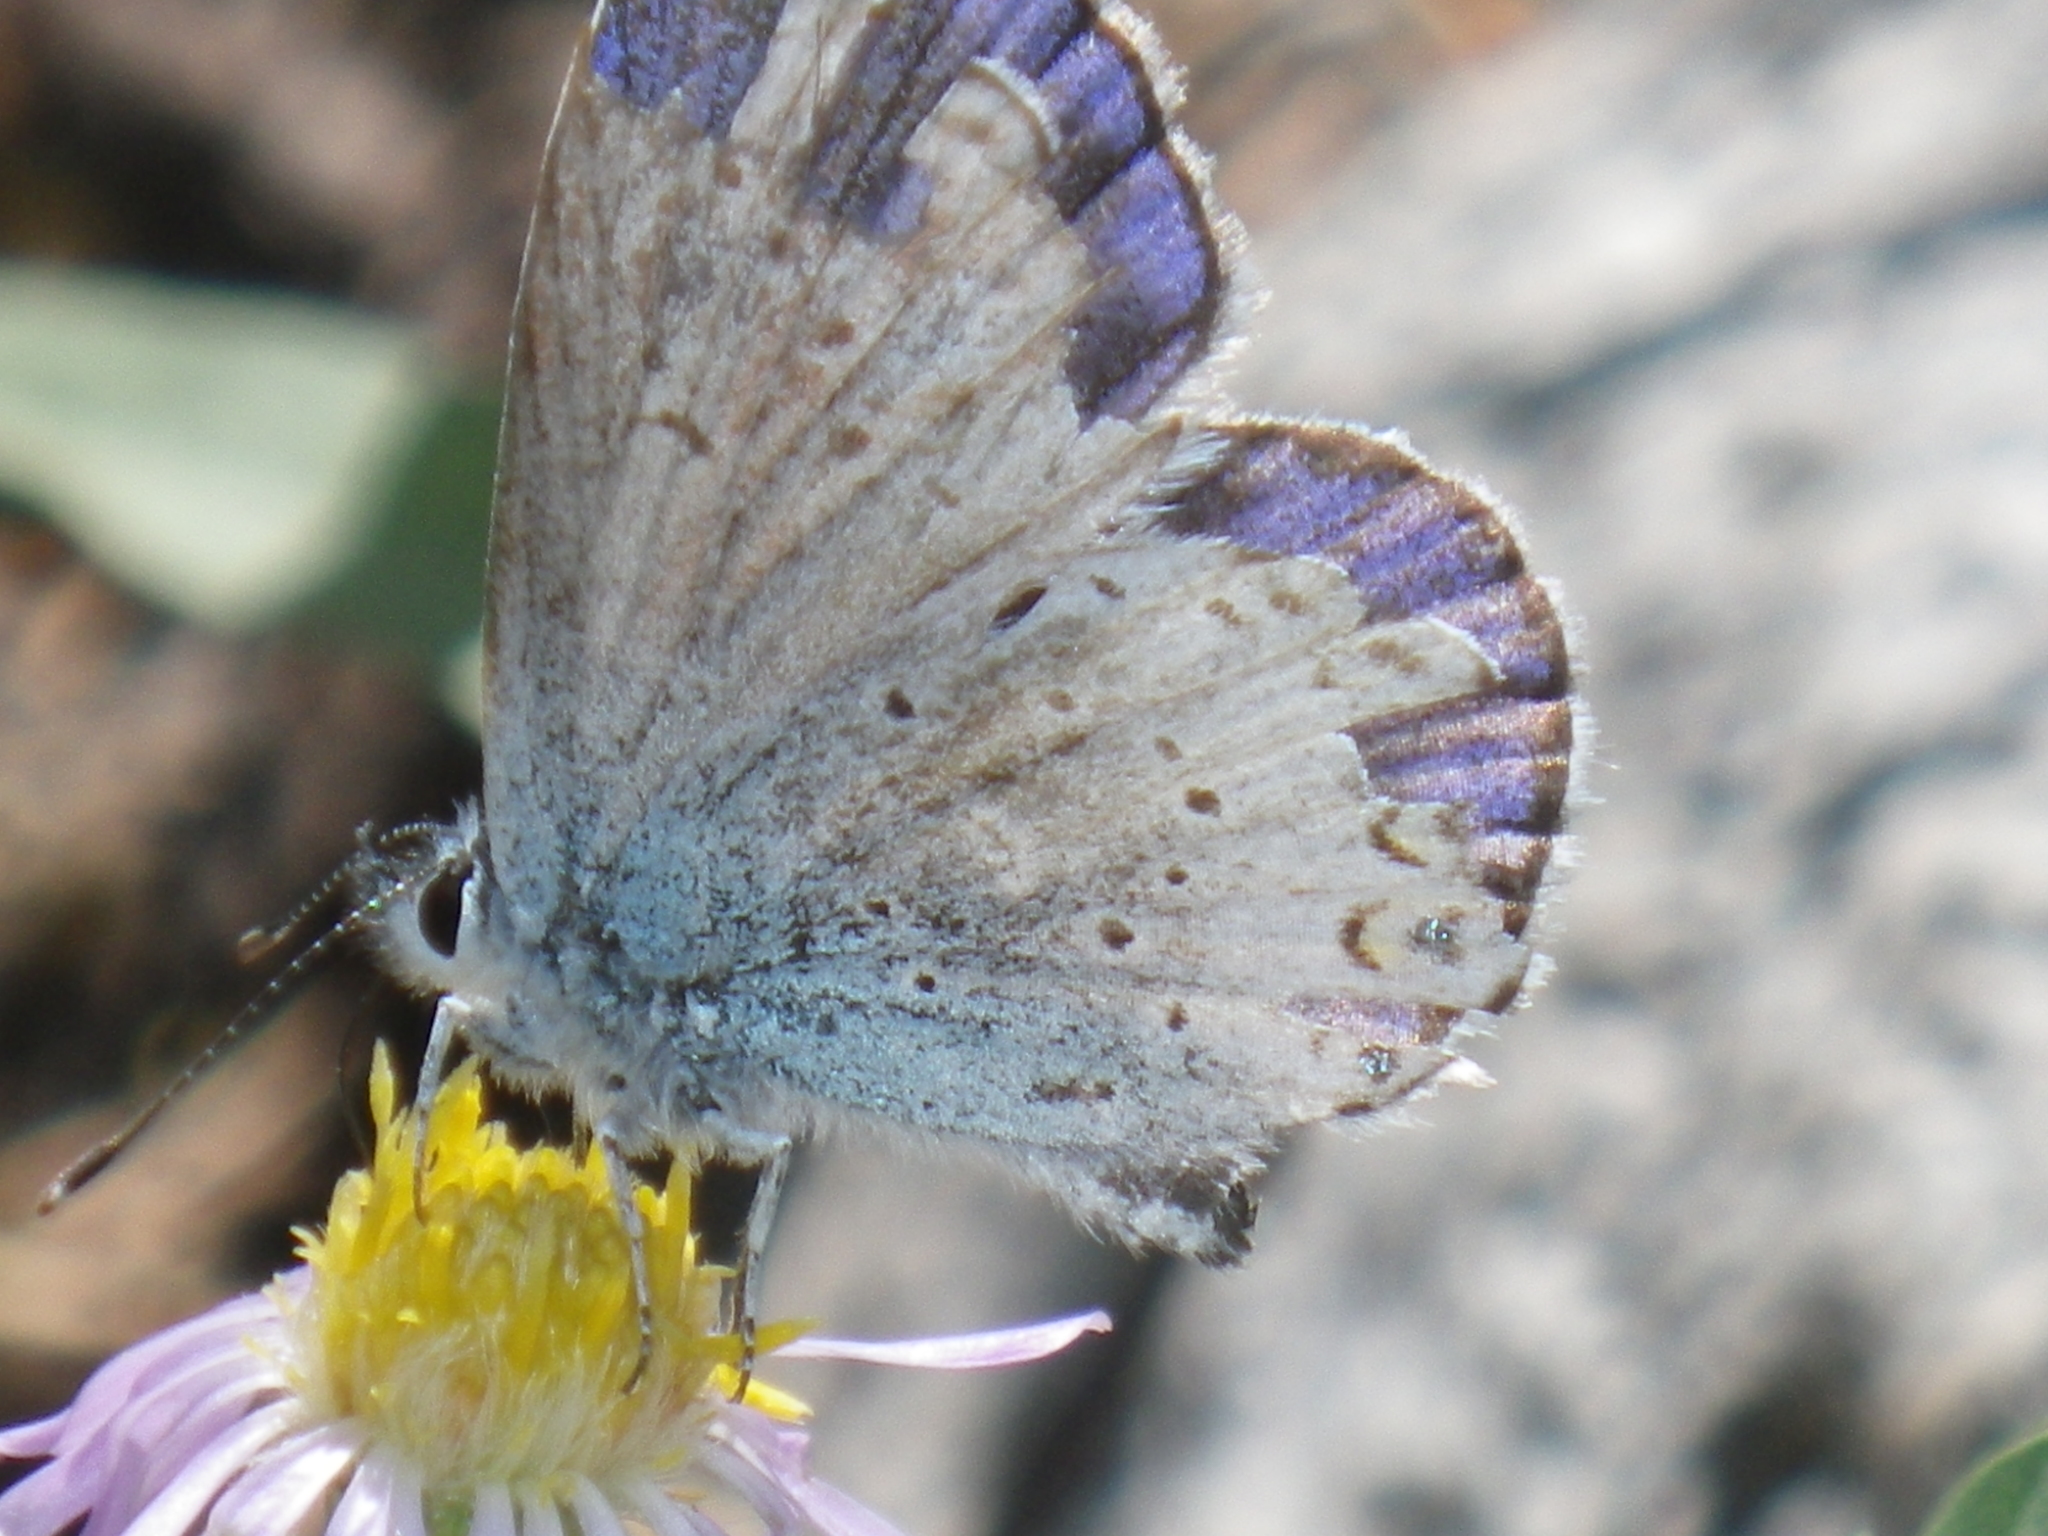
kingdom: Animalia
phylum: Arthropoda
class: Insecta
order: Lepidoptera
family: Lycaenidae
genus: Lycaeides
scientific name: Lycaeides anna
